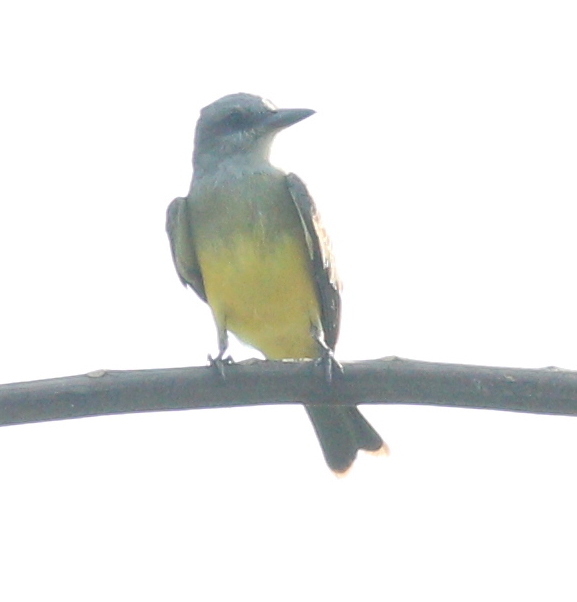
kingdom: Animalia
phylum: Chordata
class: Aves
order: Passeriformes
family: Tyrannidae
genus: Tyrannus
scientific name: Tyrannus melancholicus
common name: Tropical kingbird
